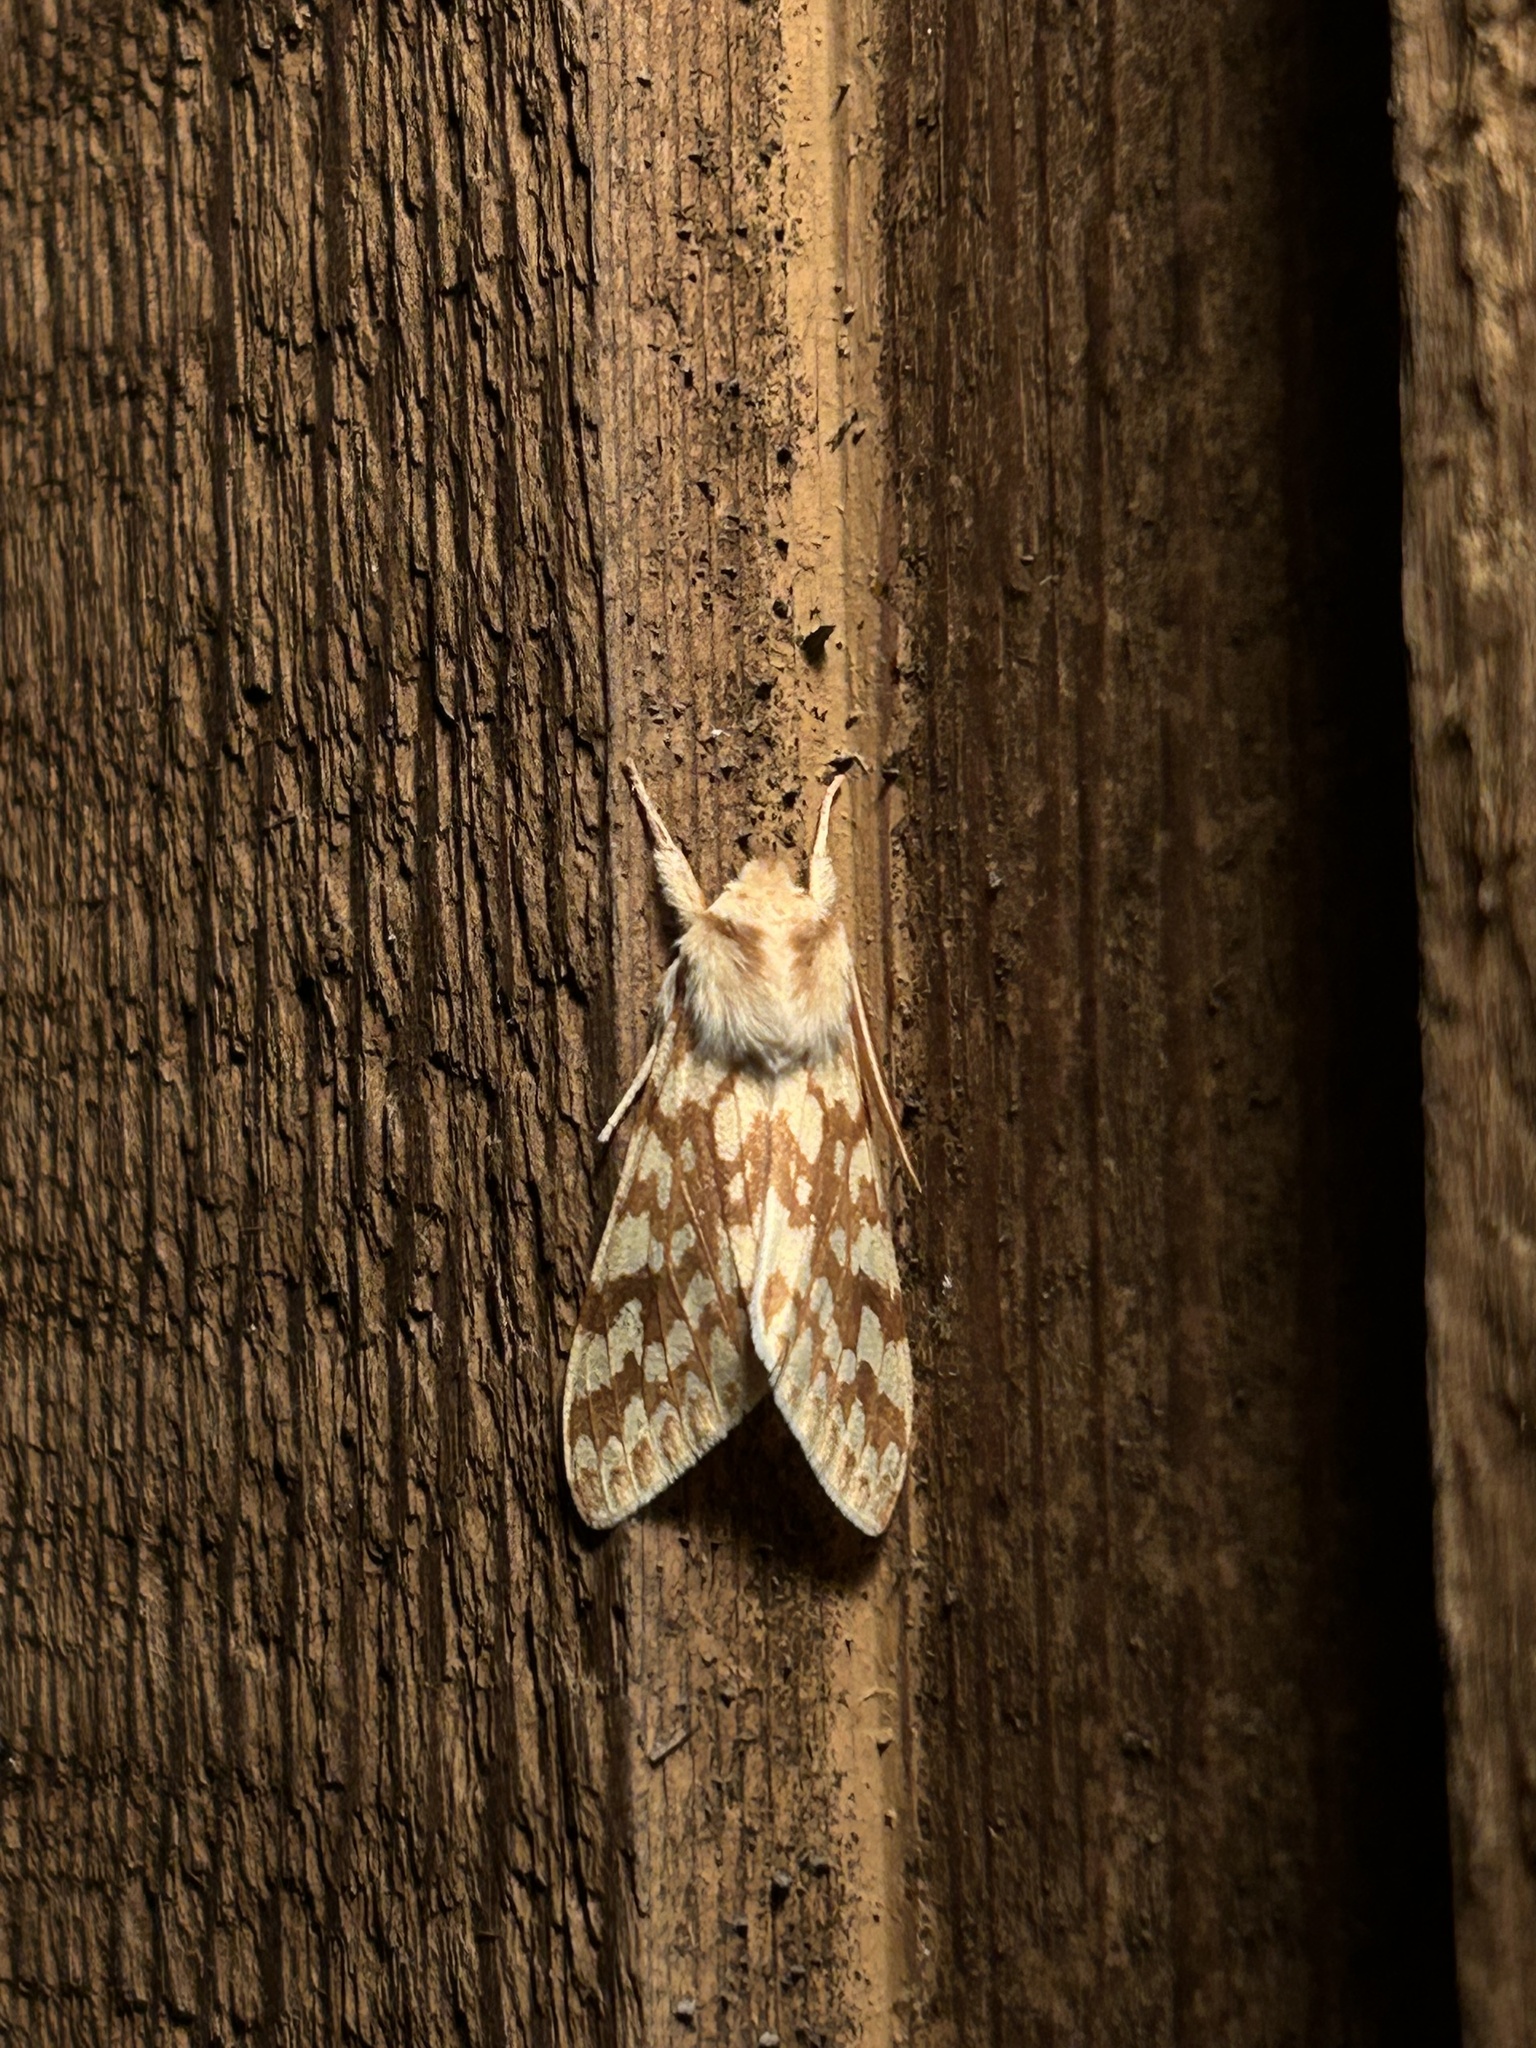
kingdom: Animalia
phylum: Arthropoda
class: Insecta
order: Lepidoptera
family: Erebidae
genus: Lophocampa
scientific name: Lophocampa maculata
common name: Spotted tussock moth
